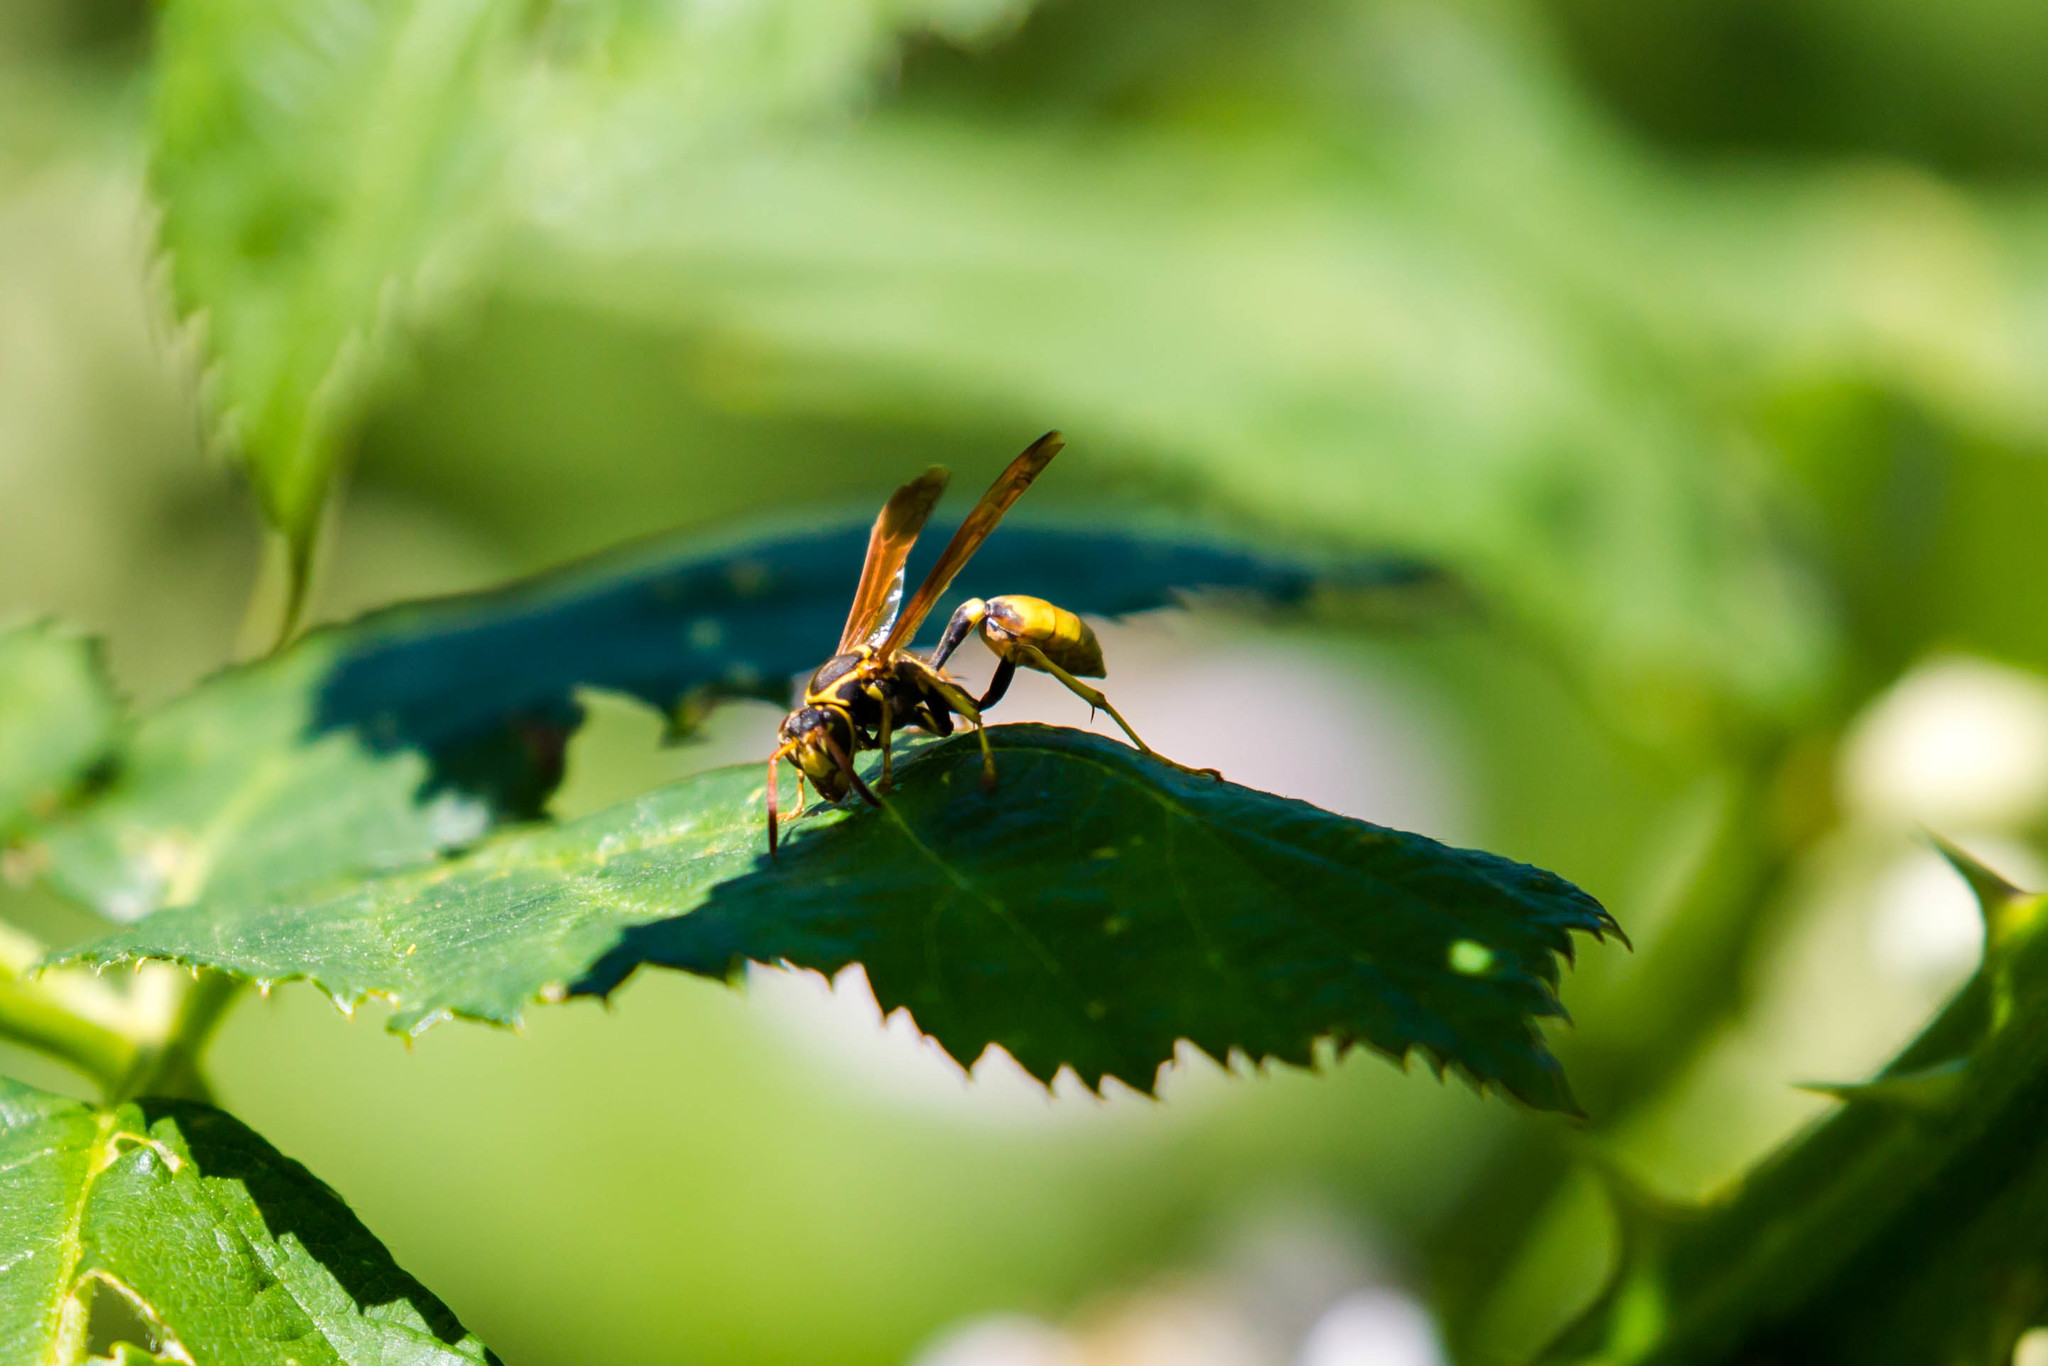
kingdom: Animalia
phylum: Arthropoda
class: Insecta
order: Hymenoptera
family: Vespidae
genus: Mischocyttarus
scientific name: Mischocyttarus flavitarsis
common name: Wasp
